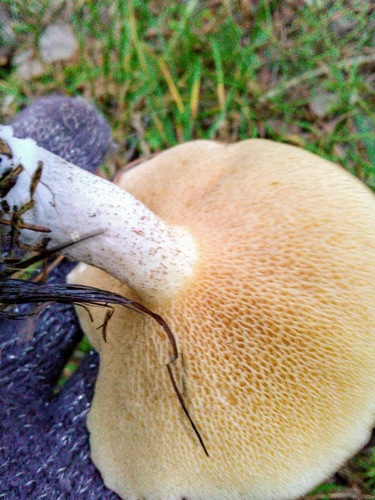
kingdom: Fungi
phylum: Basidiomycota
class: Agaricomycetes
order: Boletales
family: Suillaceae
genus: Suillus
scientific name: Suillus placidus
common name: Slippery white bolete
